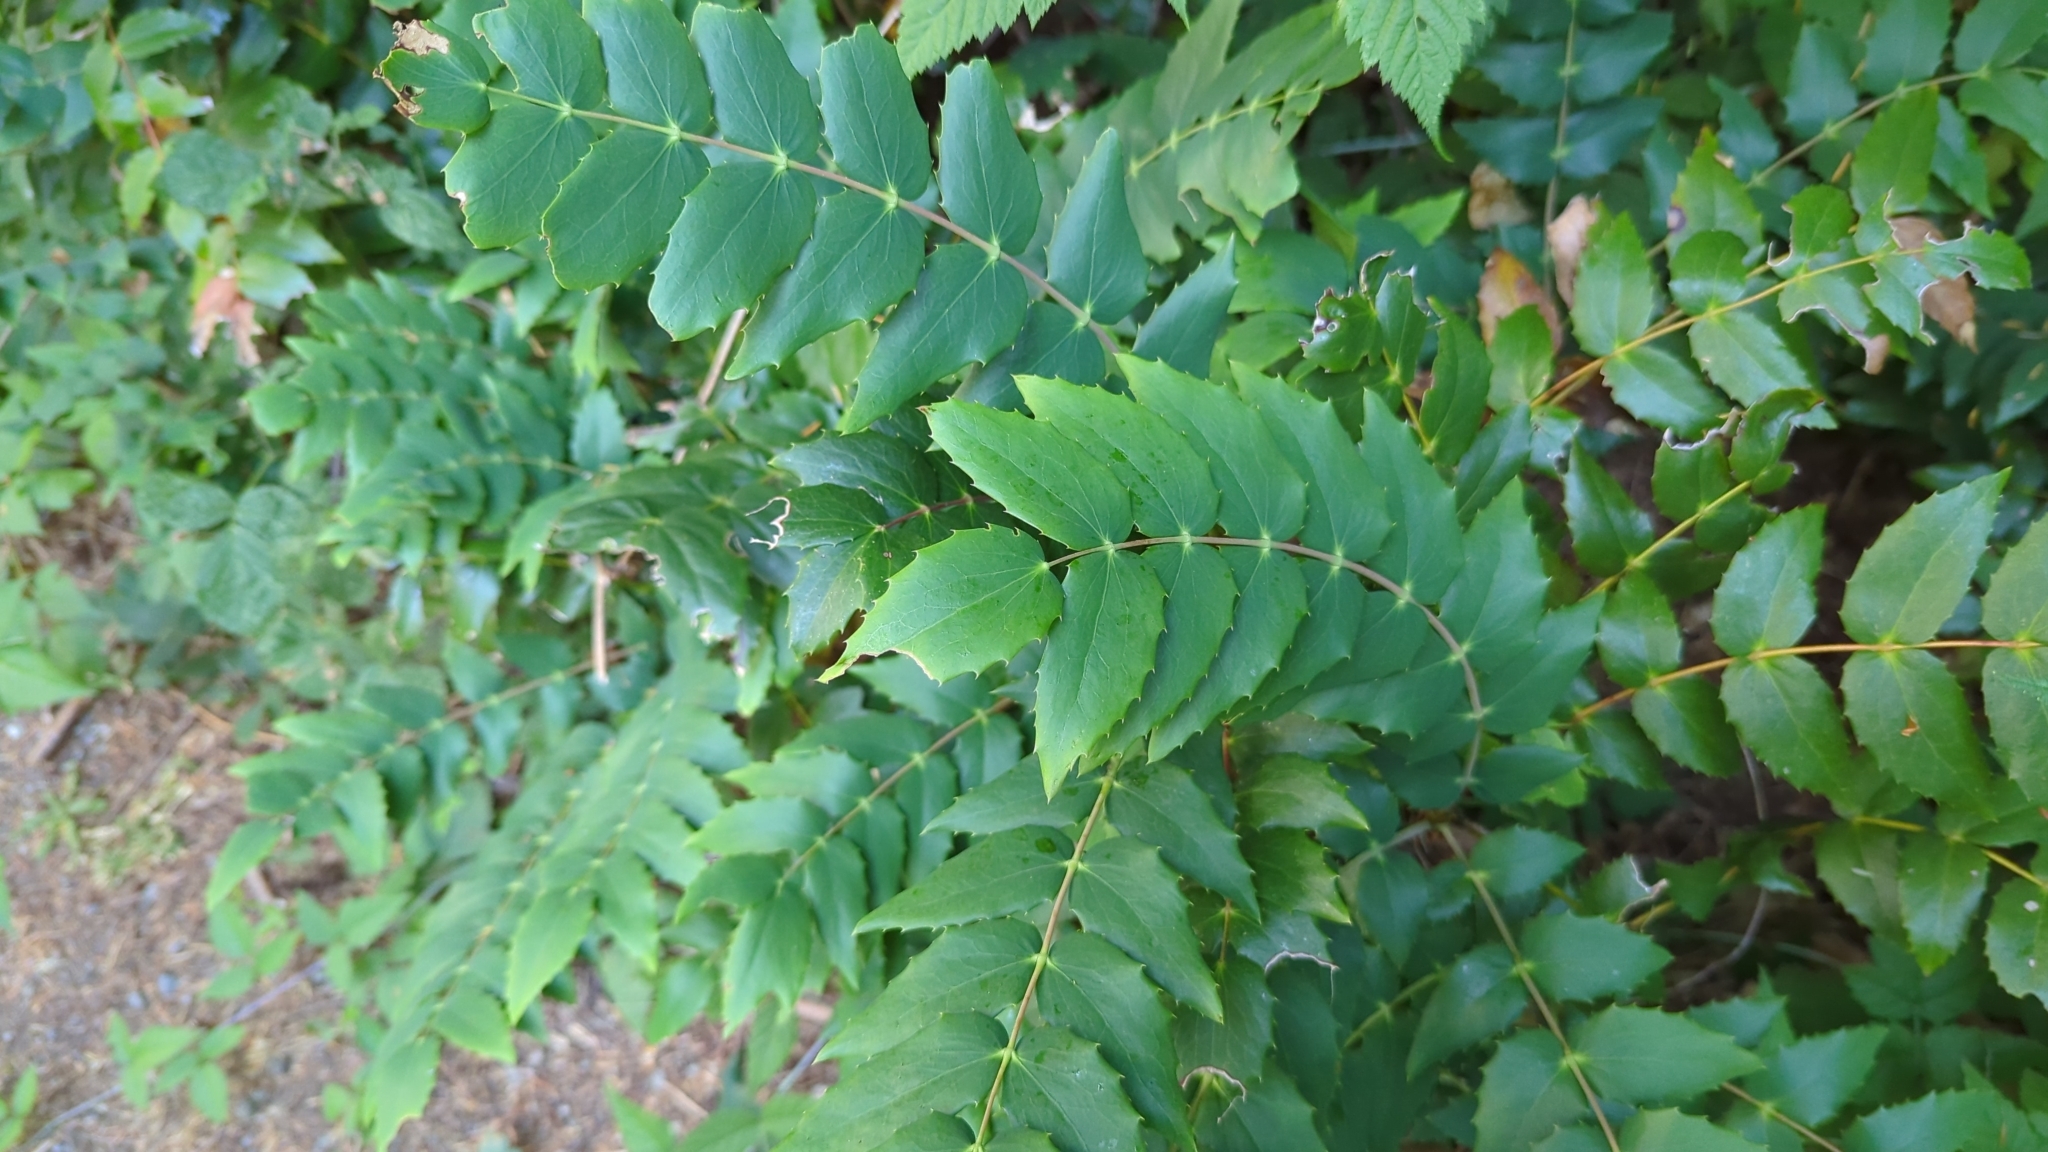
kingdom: Plantae
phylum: Tracheophyta
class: Magnoliopsida
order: Ranunculales
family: Berberidaceae
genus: Mahonia
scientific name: Mahonia nervosa
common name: Cascade oregon-grape
